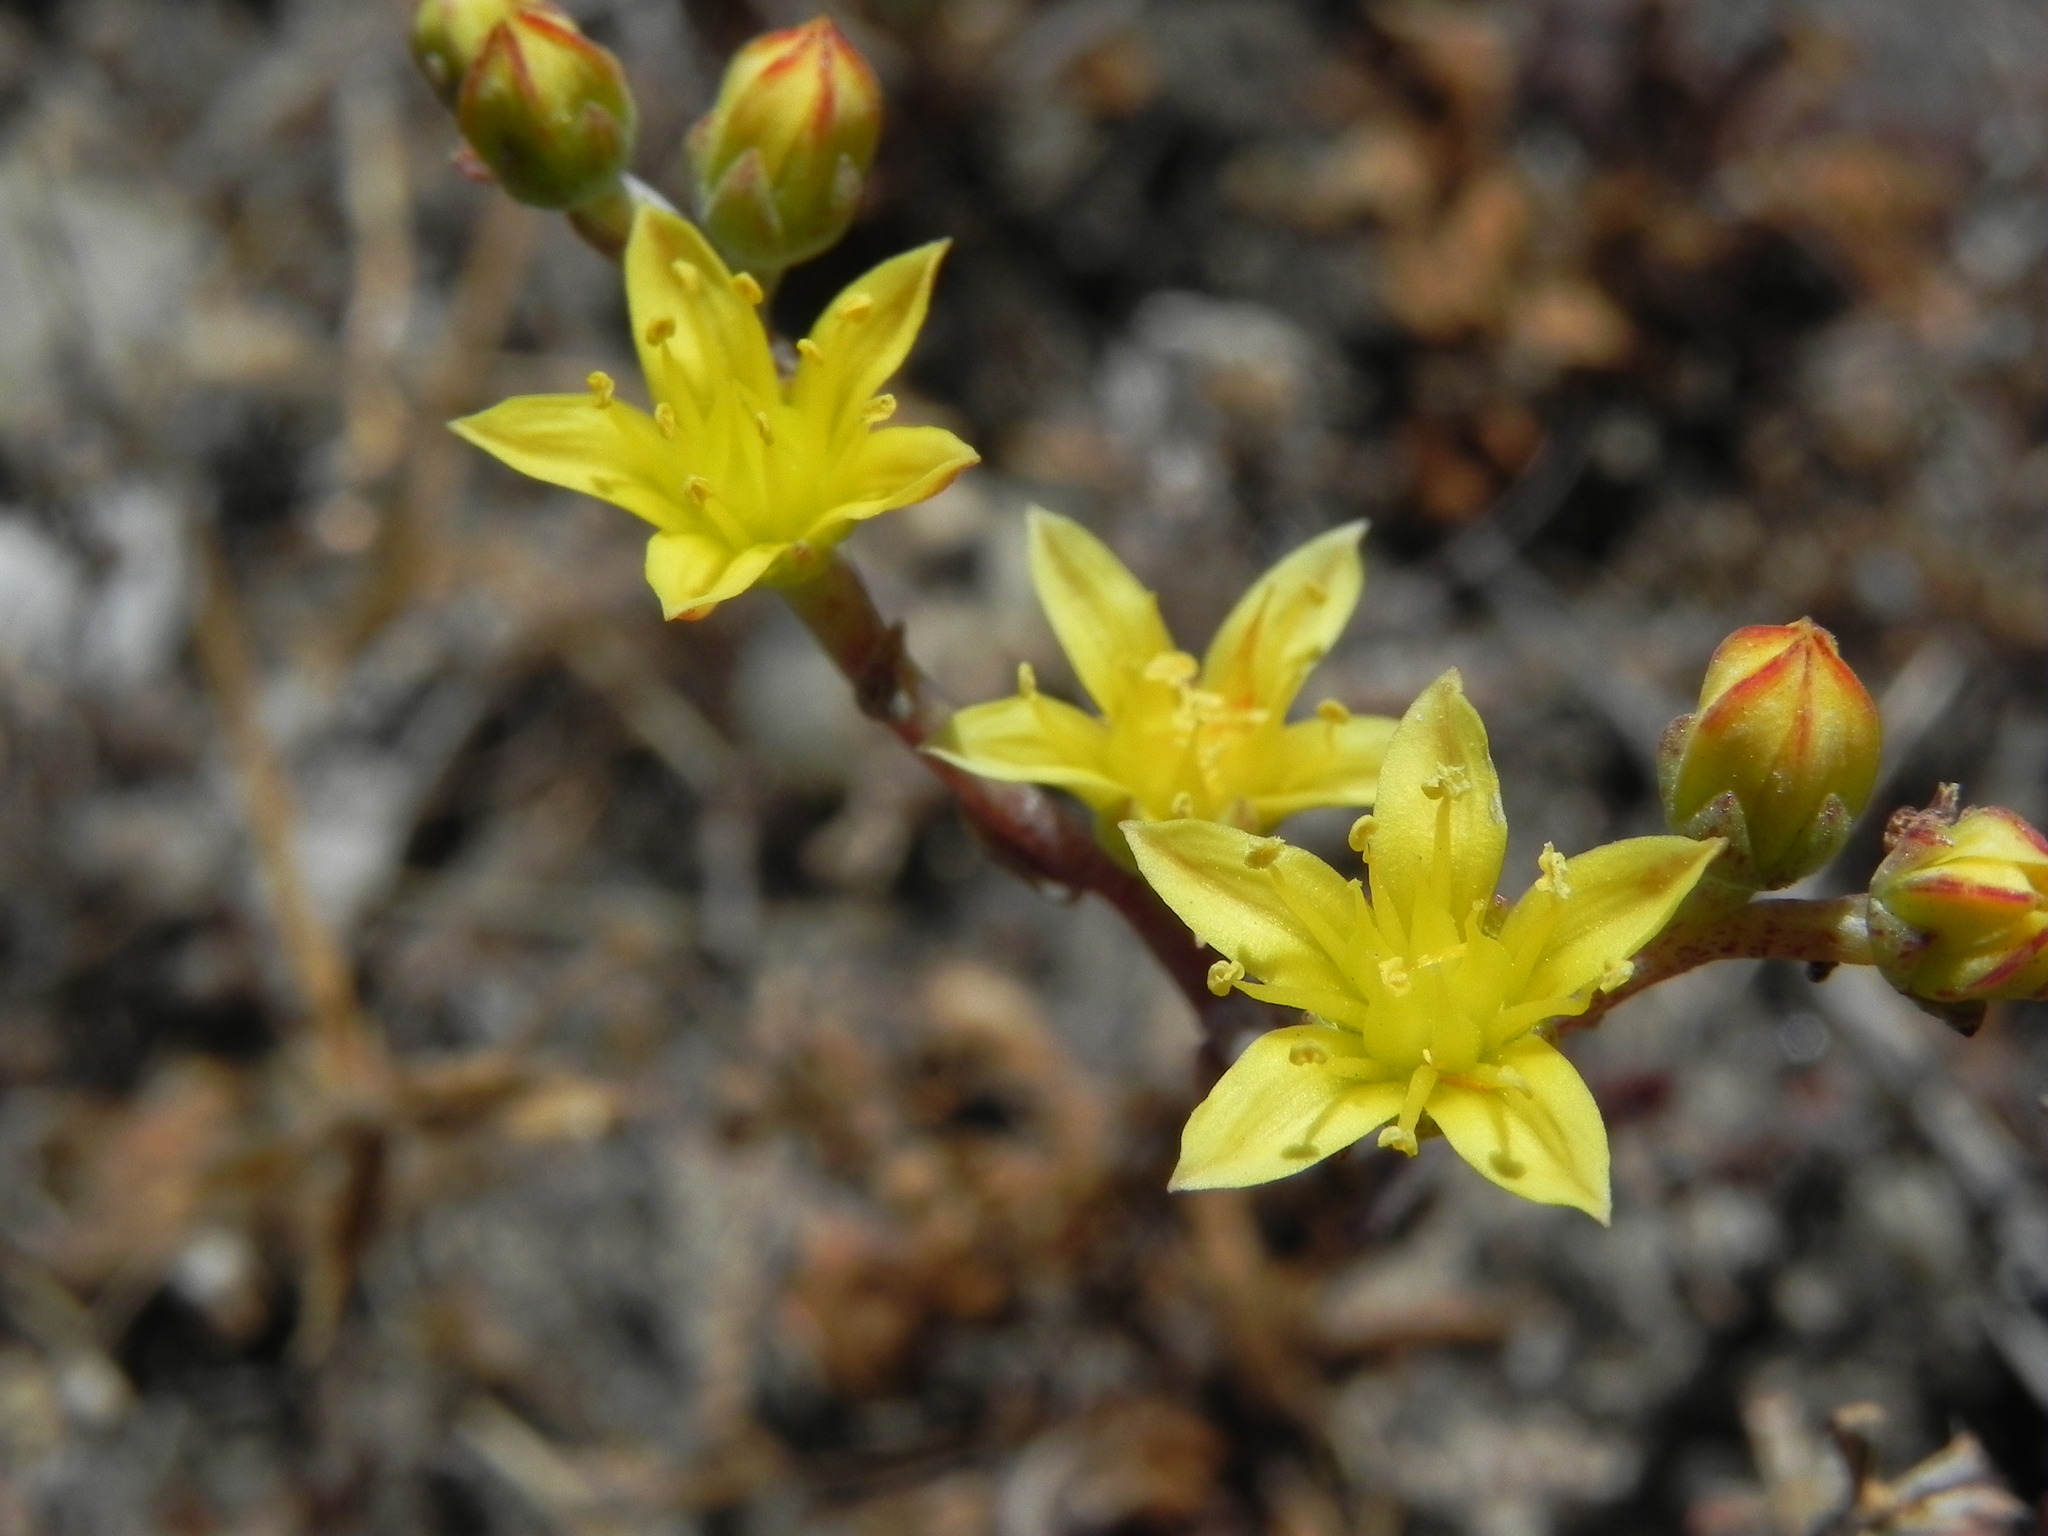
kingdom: Plantae
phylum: Tracheophyta
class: Magnoliopsida
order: Saxifragales
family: Crassulaceae
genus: Dudleya
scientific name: Dudleya variegata
